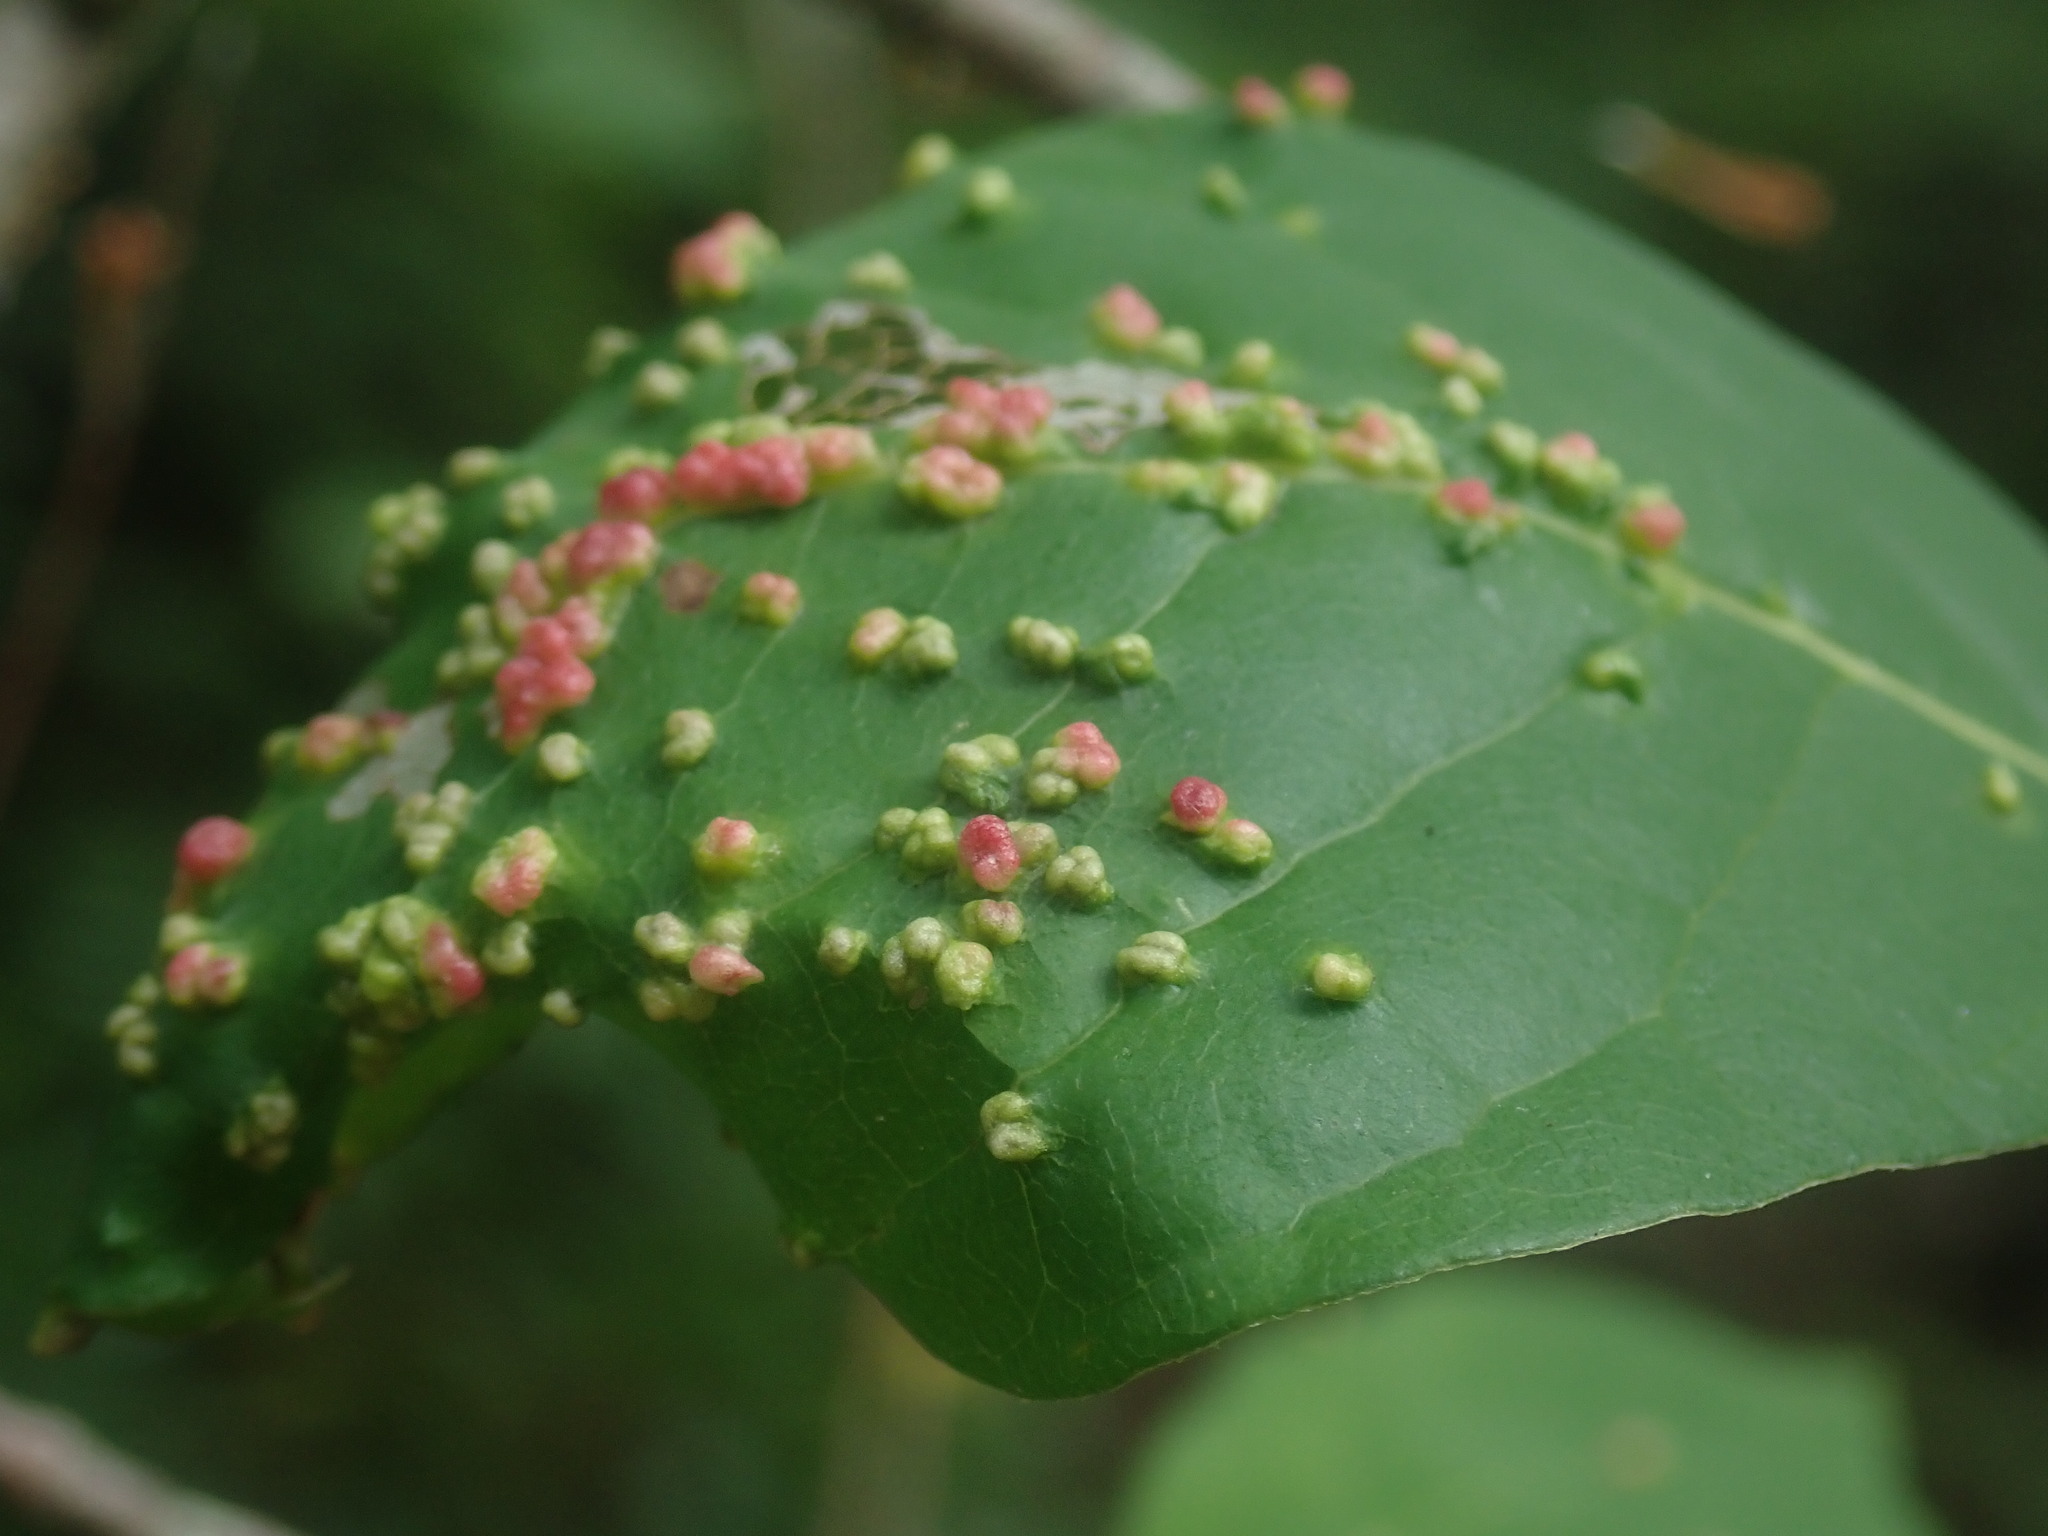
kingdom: Animalia
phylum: Arthropoda
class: Arachnida
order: Trombidiformes
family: Eriophyidae
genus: Aceria
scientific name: Aceria
